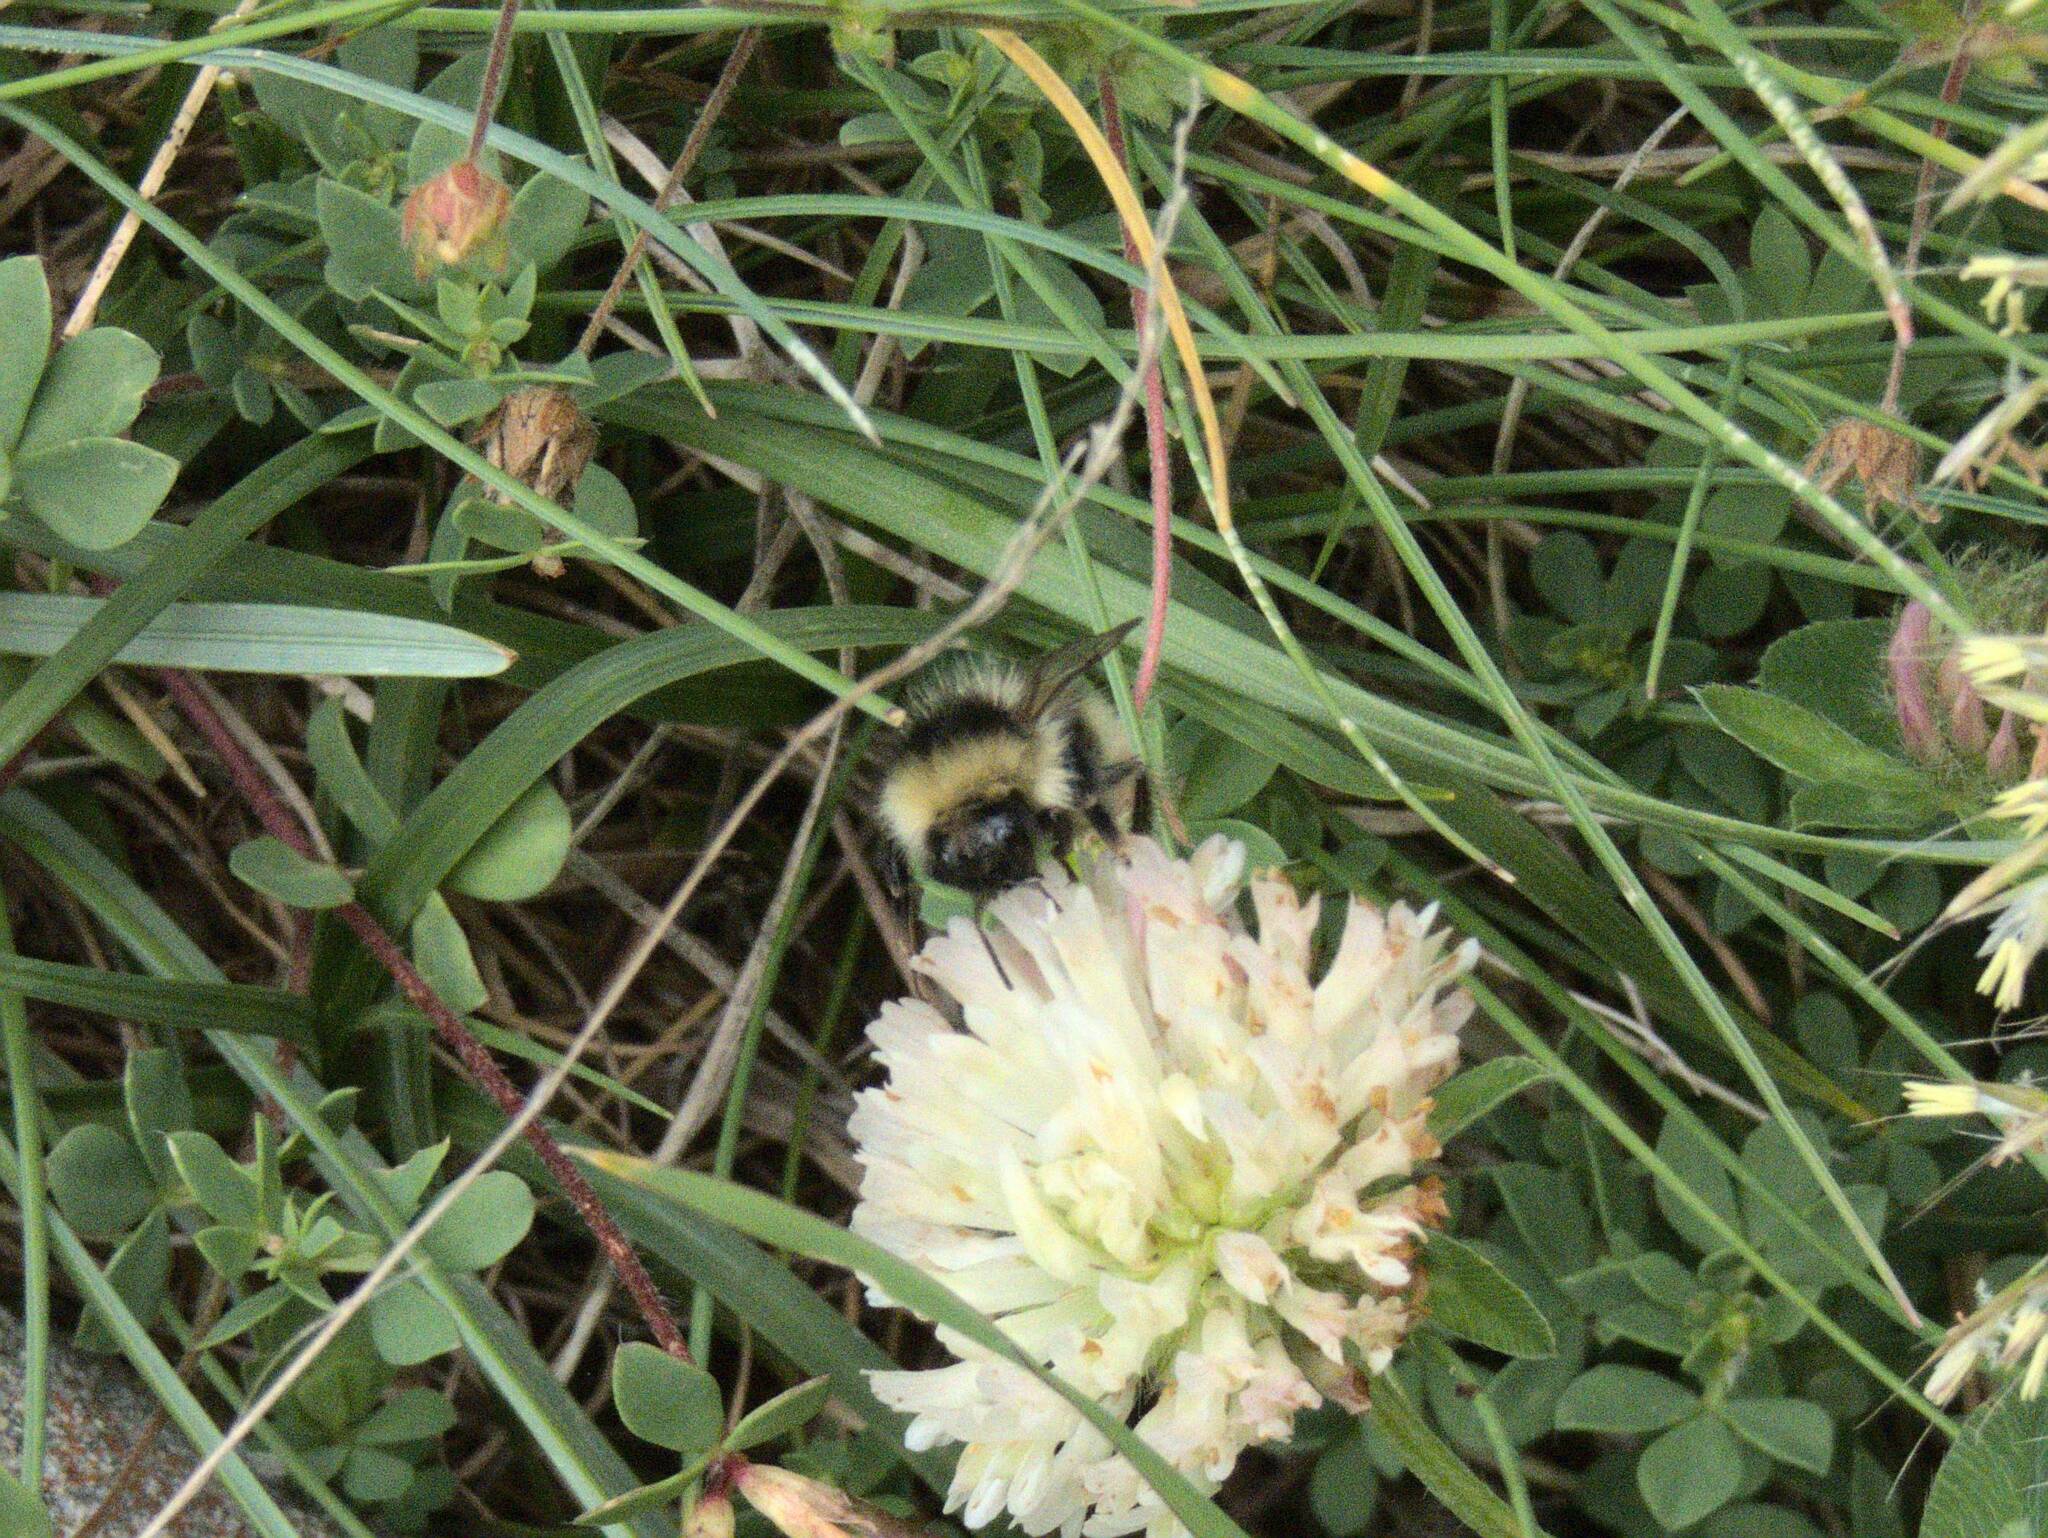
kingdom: Animalia
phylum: Arthropoda
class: Insecta
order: Hymenoptera
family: Apidae
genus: Bombus
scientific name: Bombus mucidus
